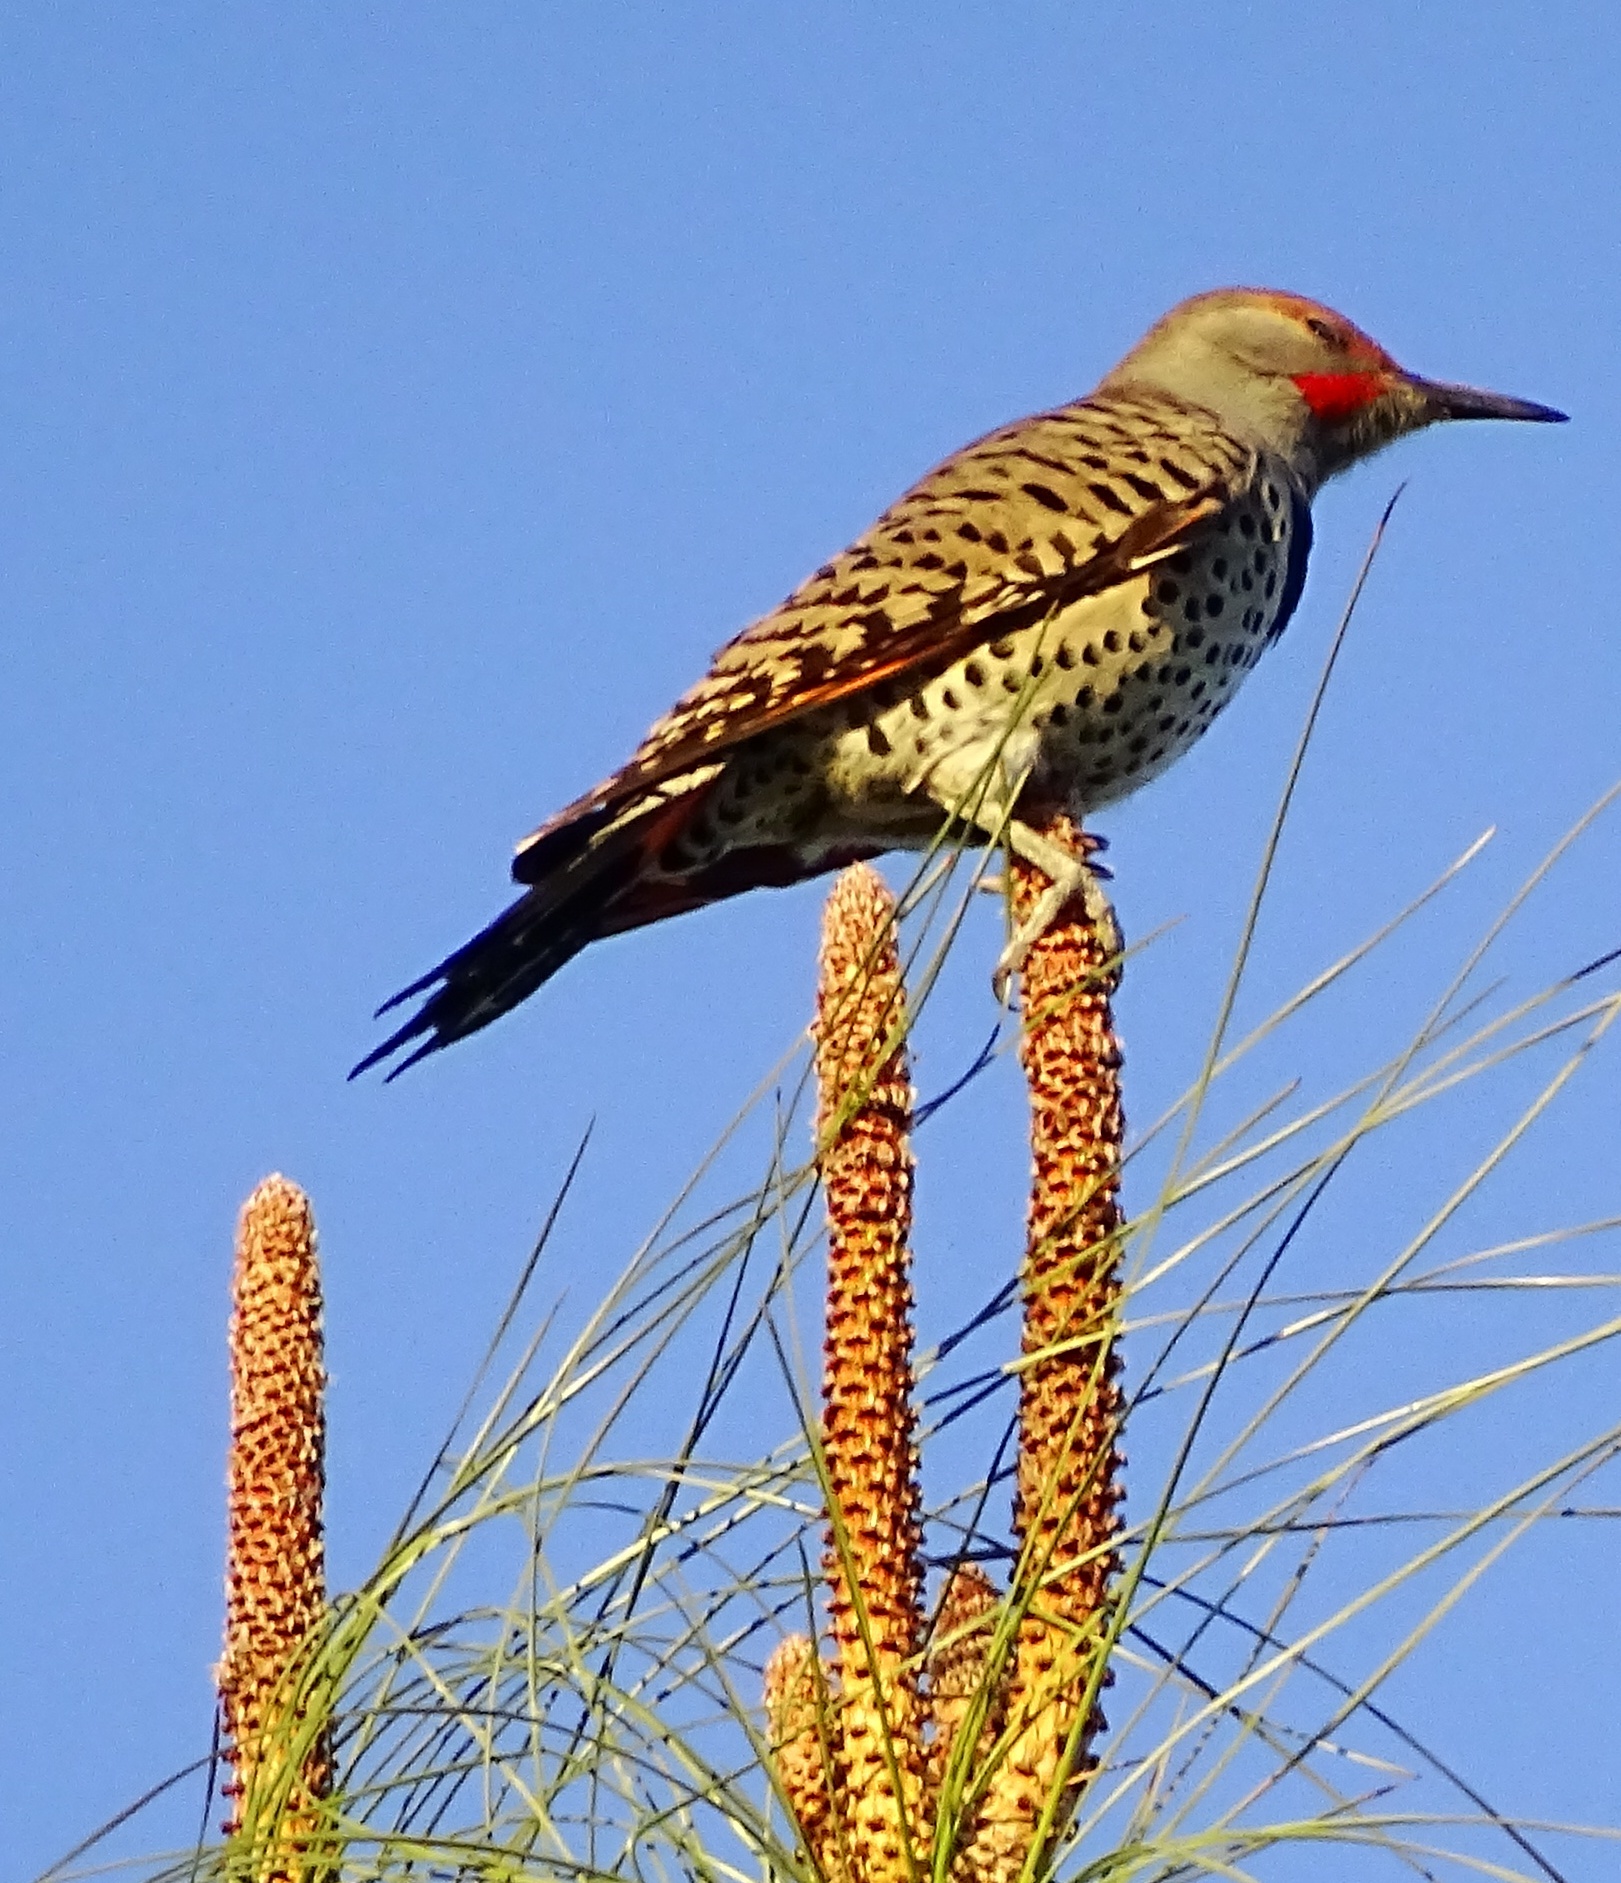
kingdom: Animalia
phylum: Chordata
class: Aves
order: Piciformes
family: Picidae
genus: Colaptes
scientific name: Colaptes auratus
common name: Northern flicker
